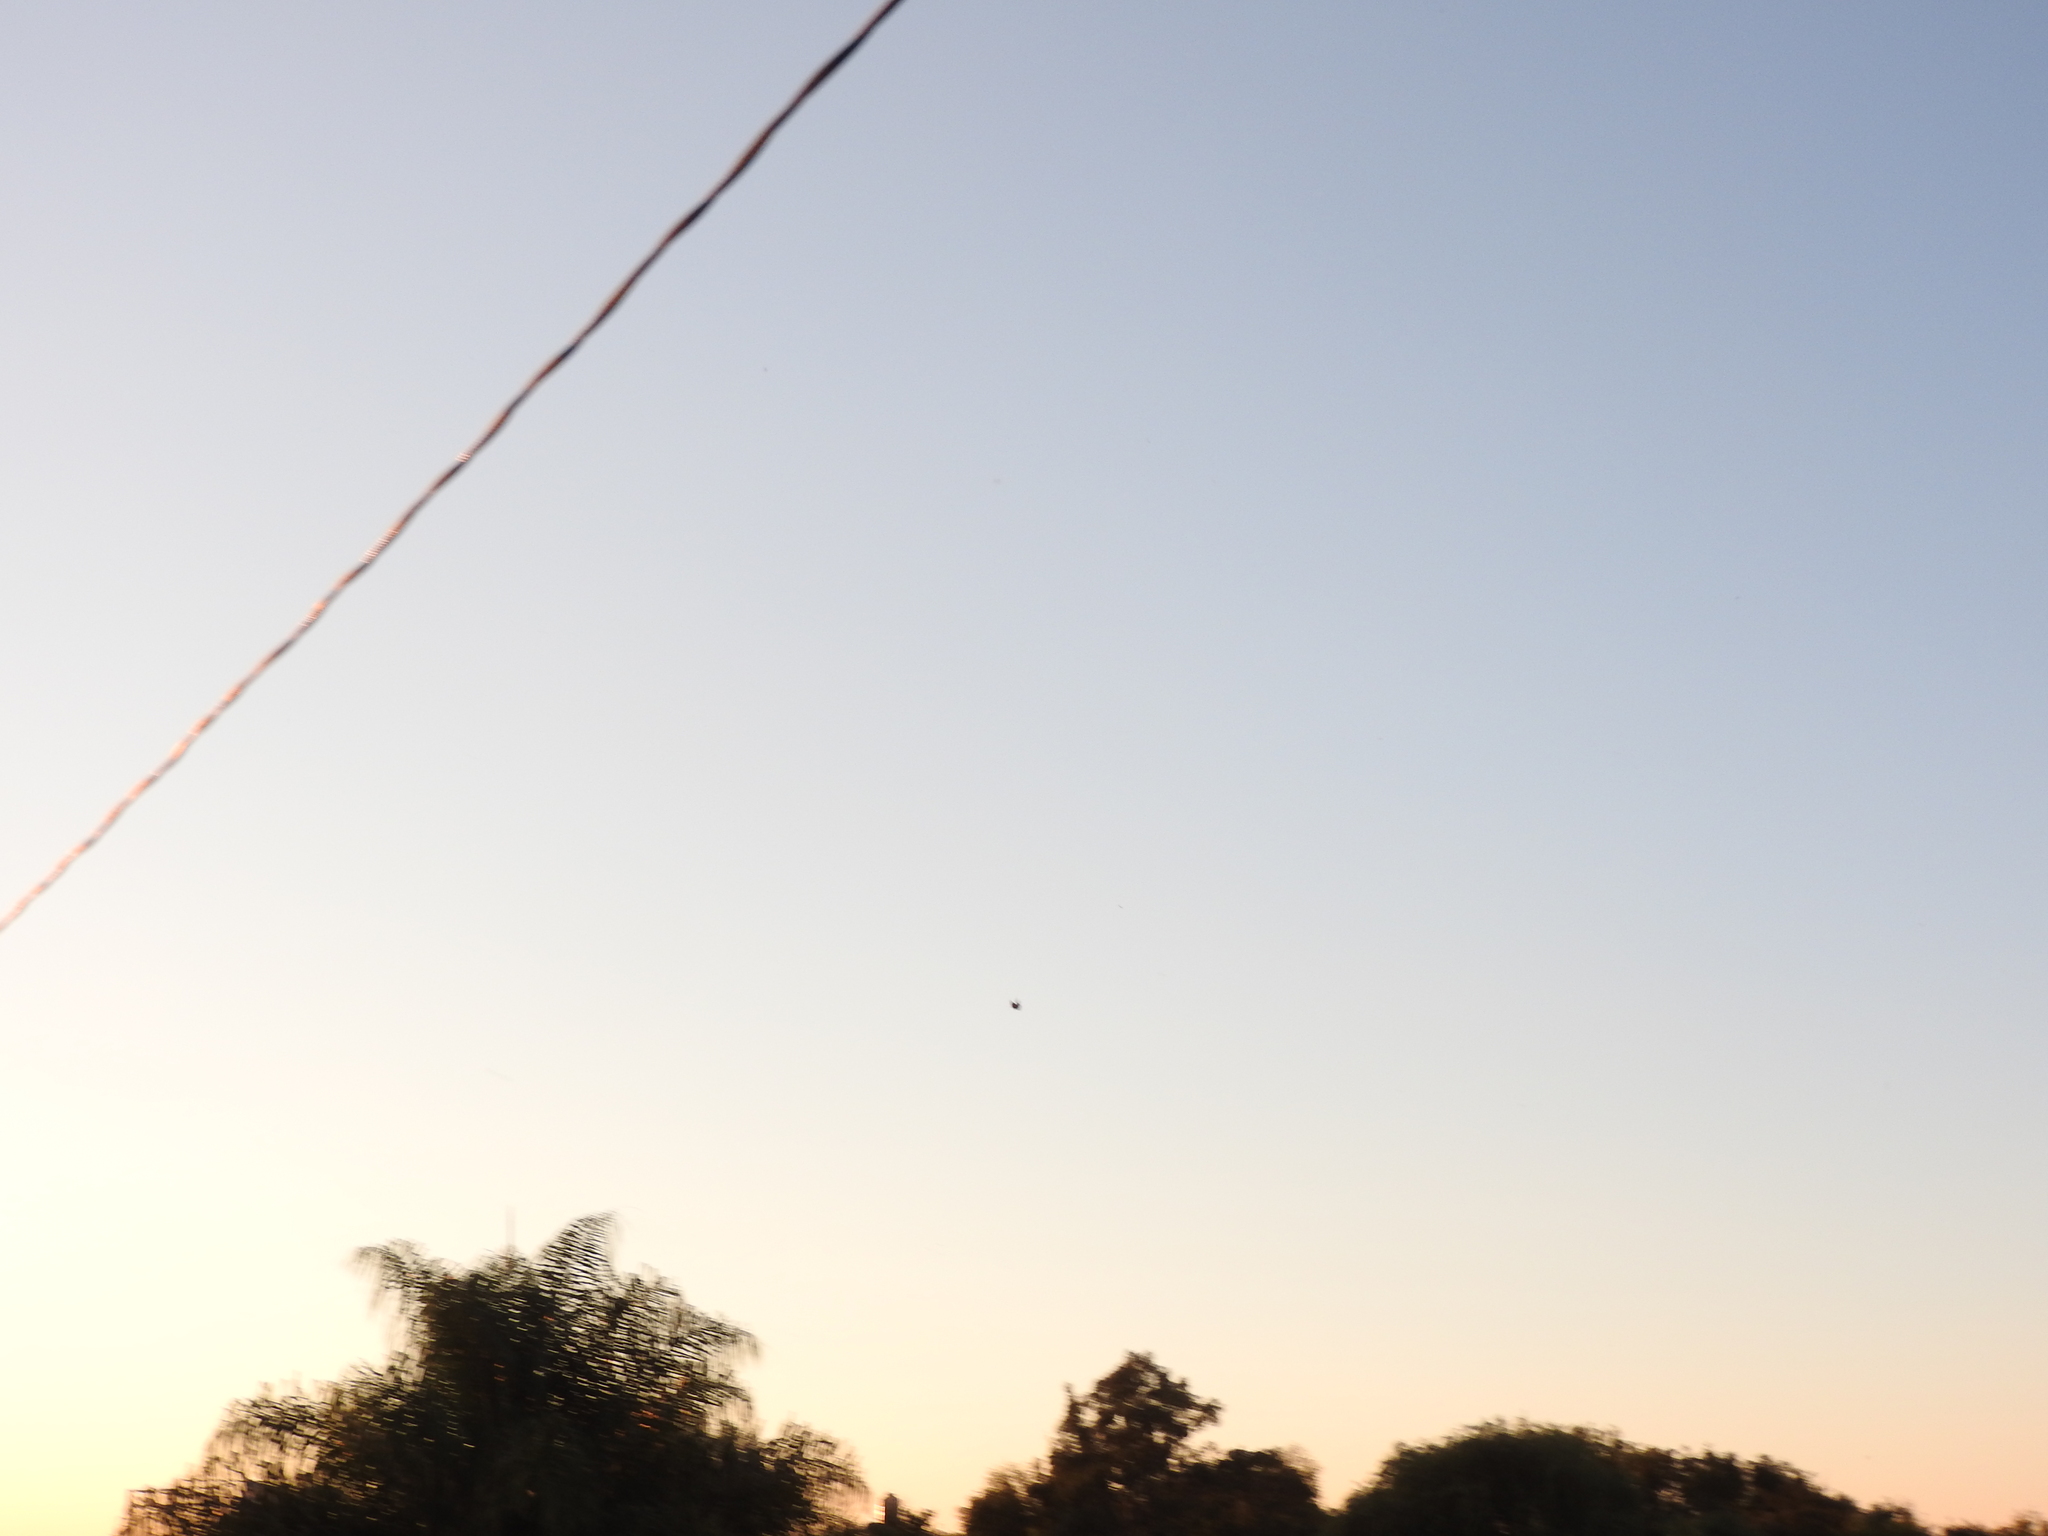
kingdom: Animalia
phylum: Arthropoda
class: Insecta
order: Lepidoptera
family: Nymphalidae
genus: Danaus
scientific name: Danaus plexippus
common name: Monarch
